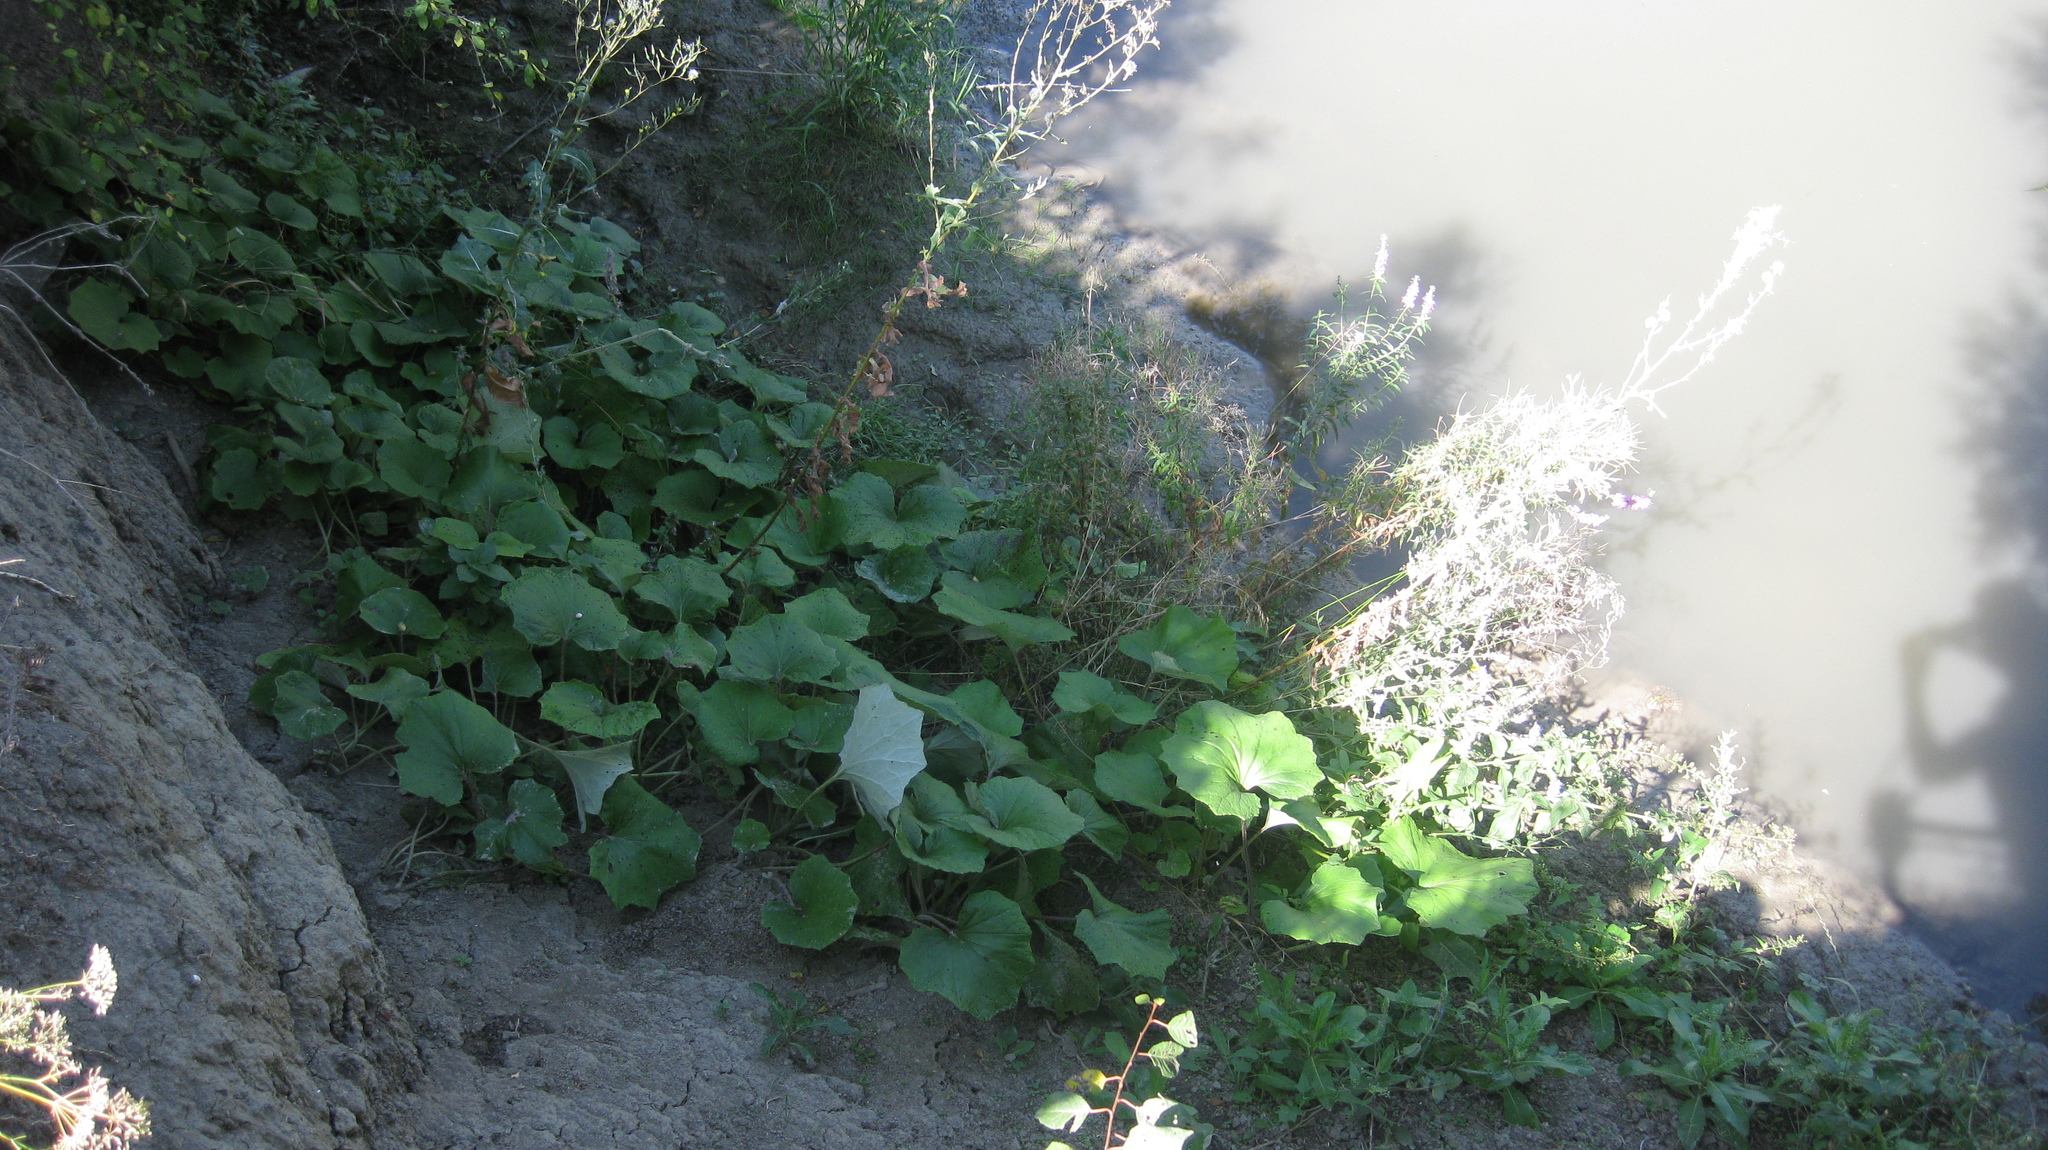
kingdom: Plantae
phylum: Tracheophyta
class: Magnoliopsida
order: Asterales
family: Asteraceae
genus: Tussilago
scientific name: Tussilago farfara
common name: Coltsfoot
